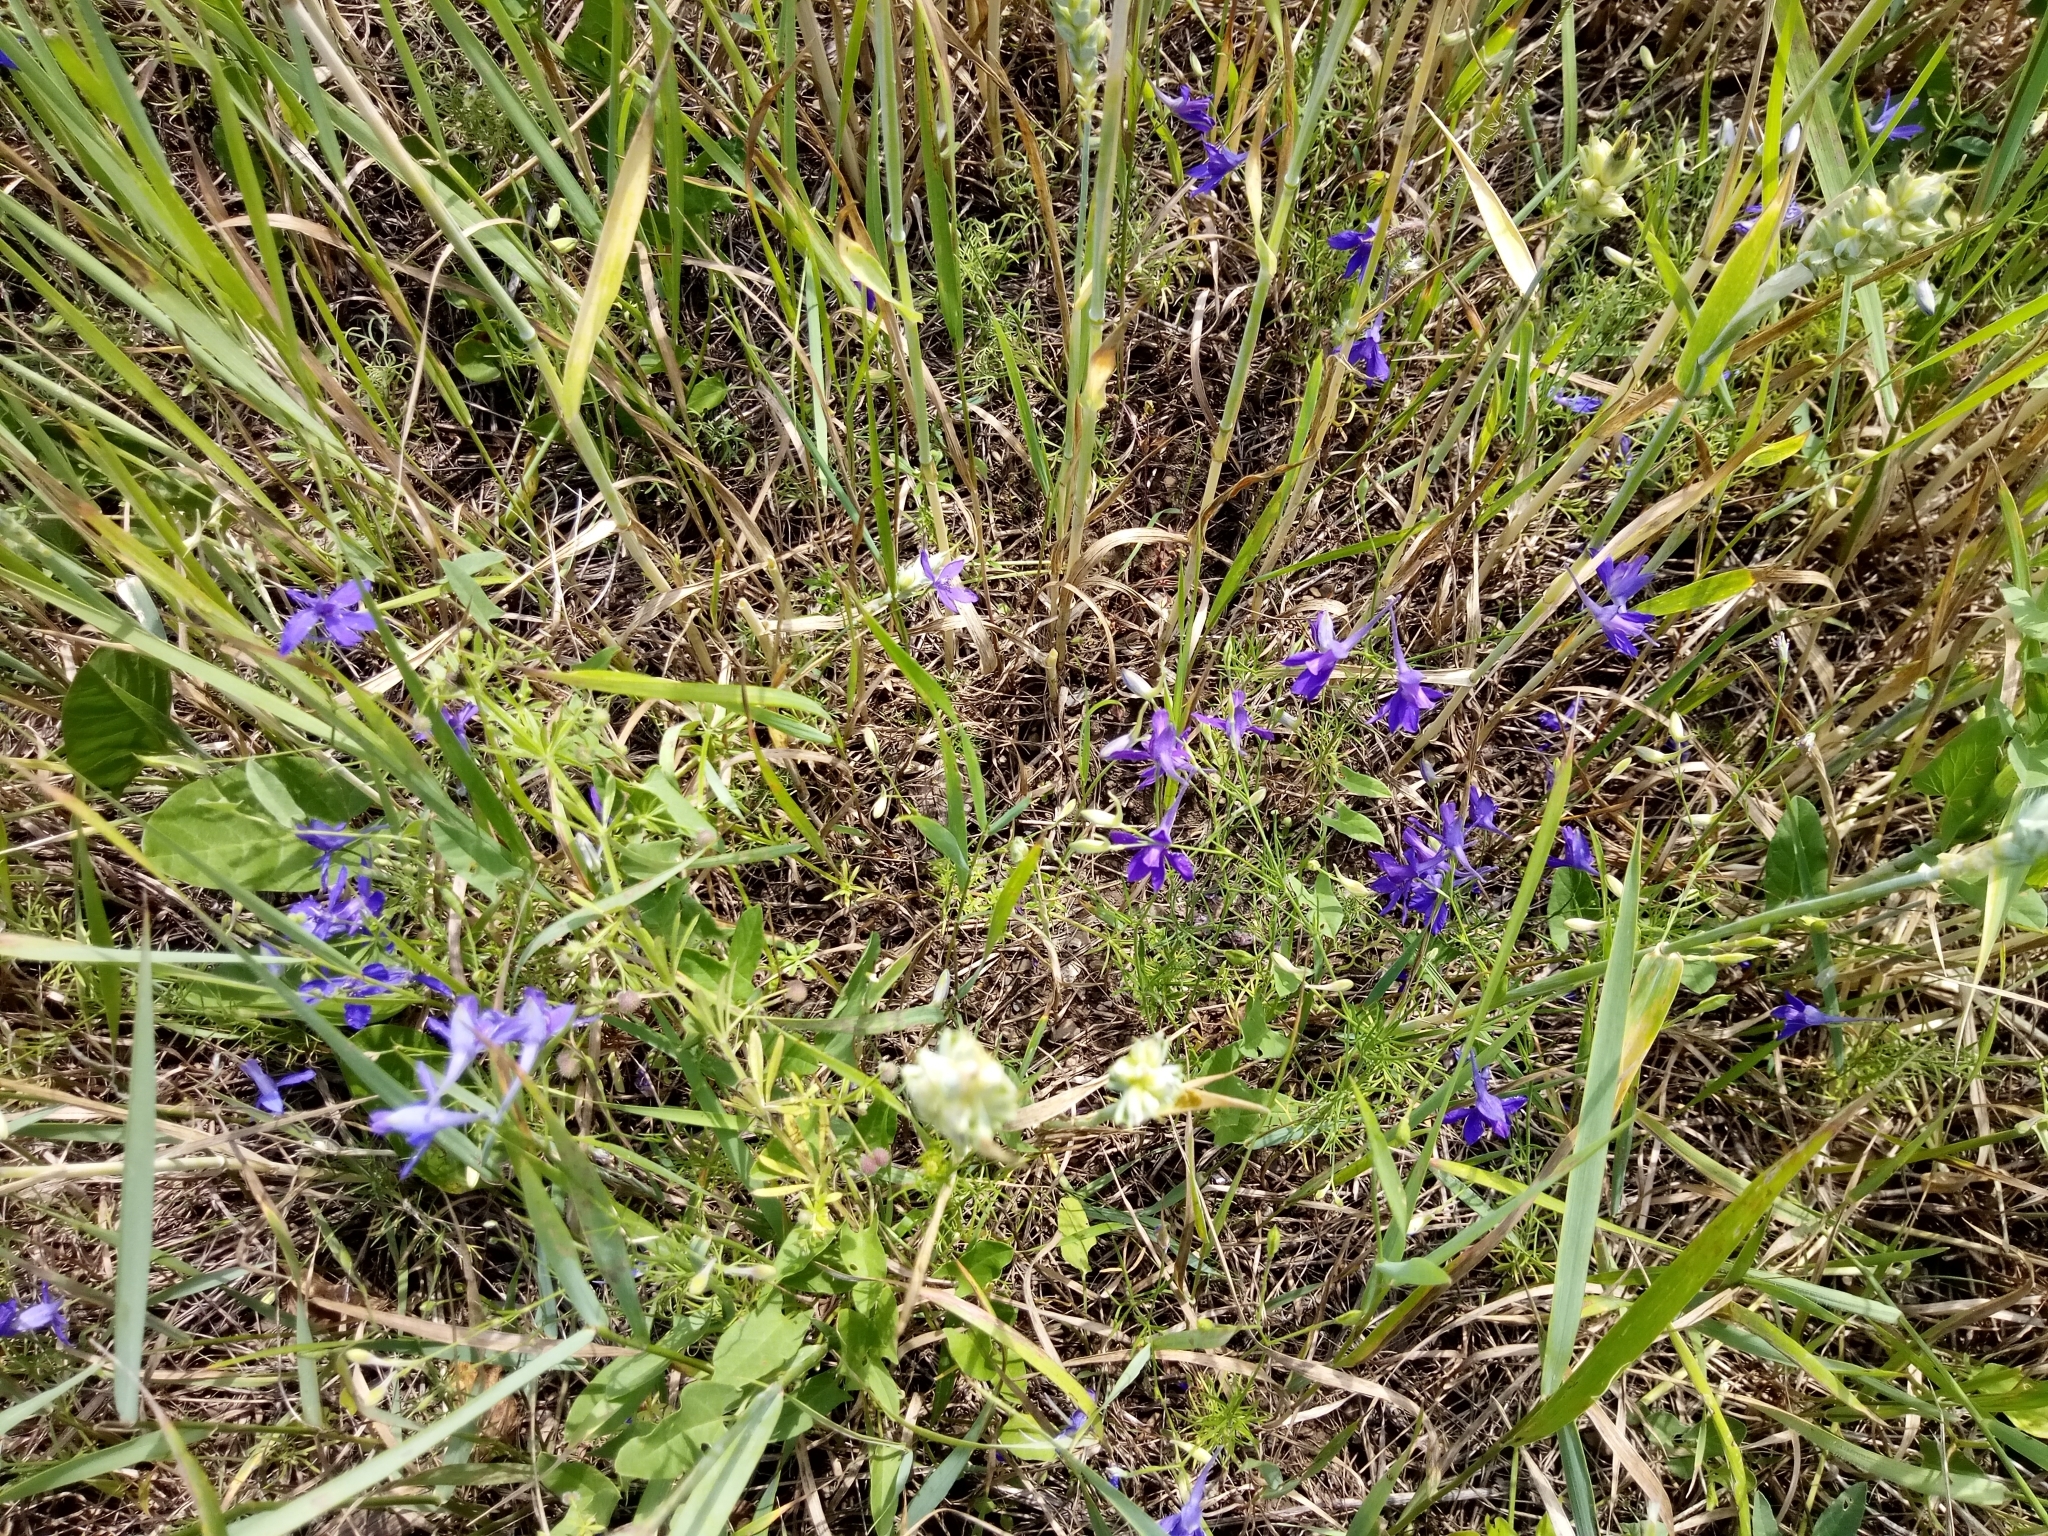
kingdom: Plantae
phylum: Tracheophyta
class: Magnoliopsida
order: Ranunculales
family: Ranunculaceae
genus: Delphinium
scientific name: Delphinium consolida
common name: Branching larkspur
